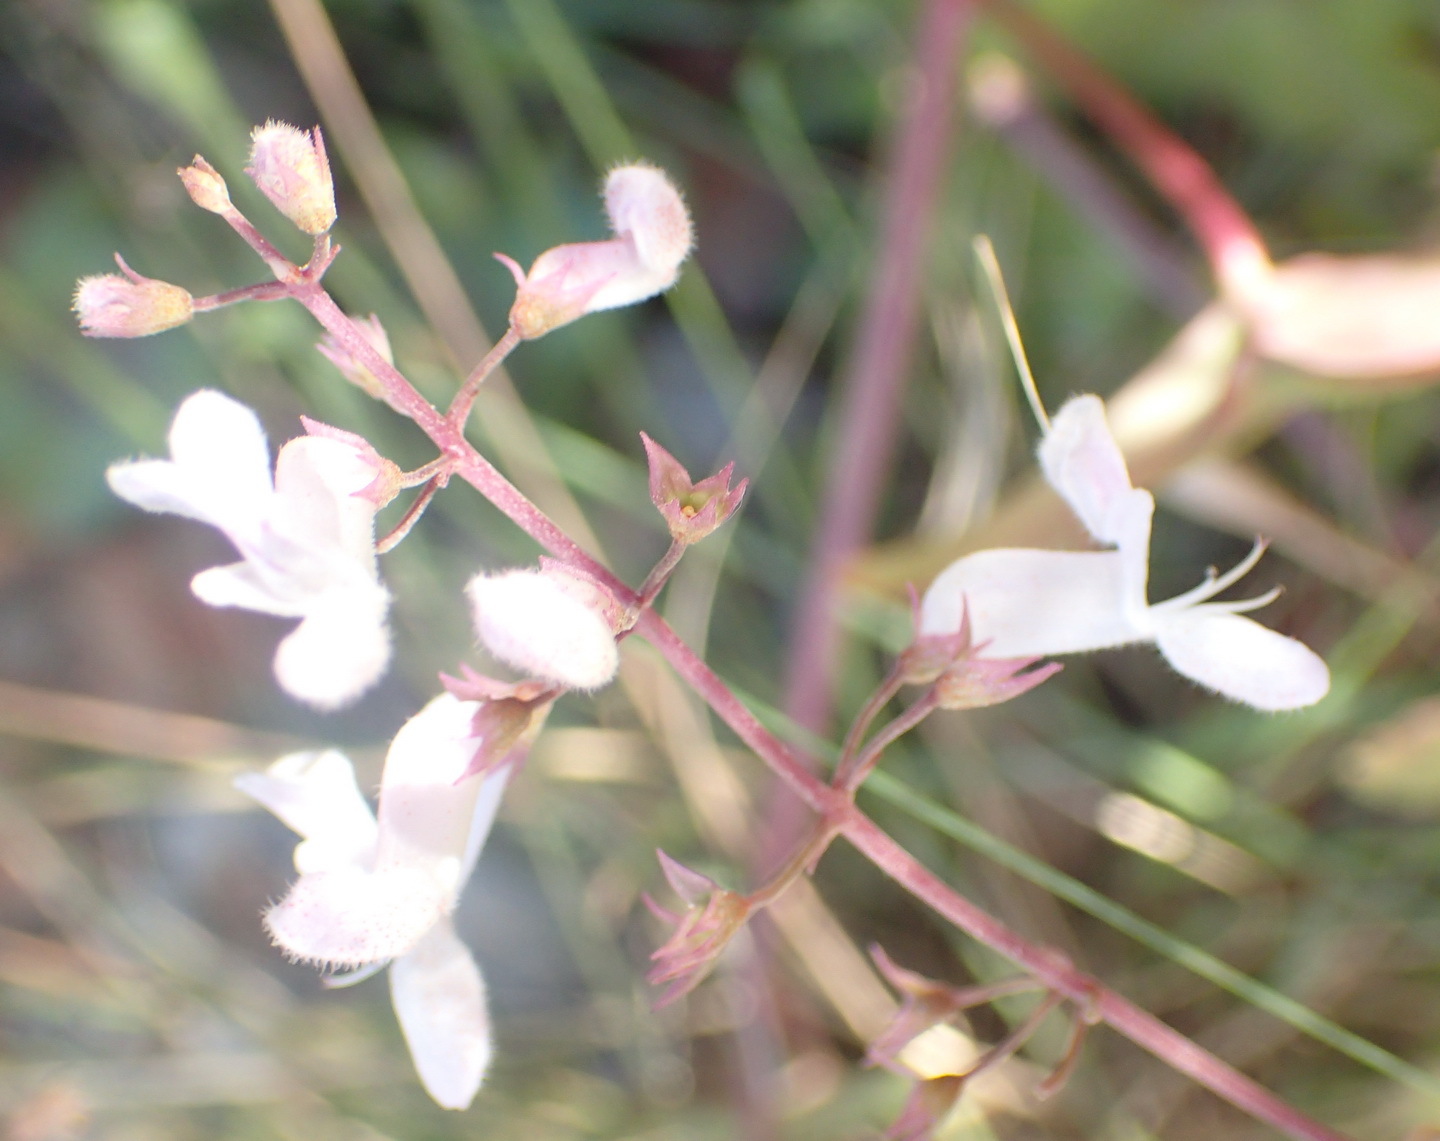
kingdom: Plantae
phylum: Tracheophyta
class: Magnoliopsida
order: Lamiales
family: Lamiaceae
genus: Plectranthus
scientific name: Plectranthus verticillatus
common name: Whorled plectranthus
